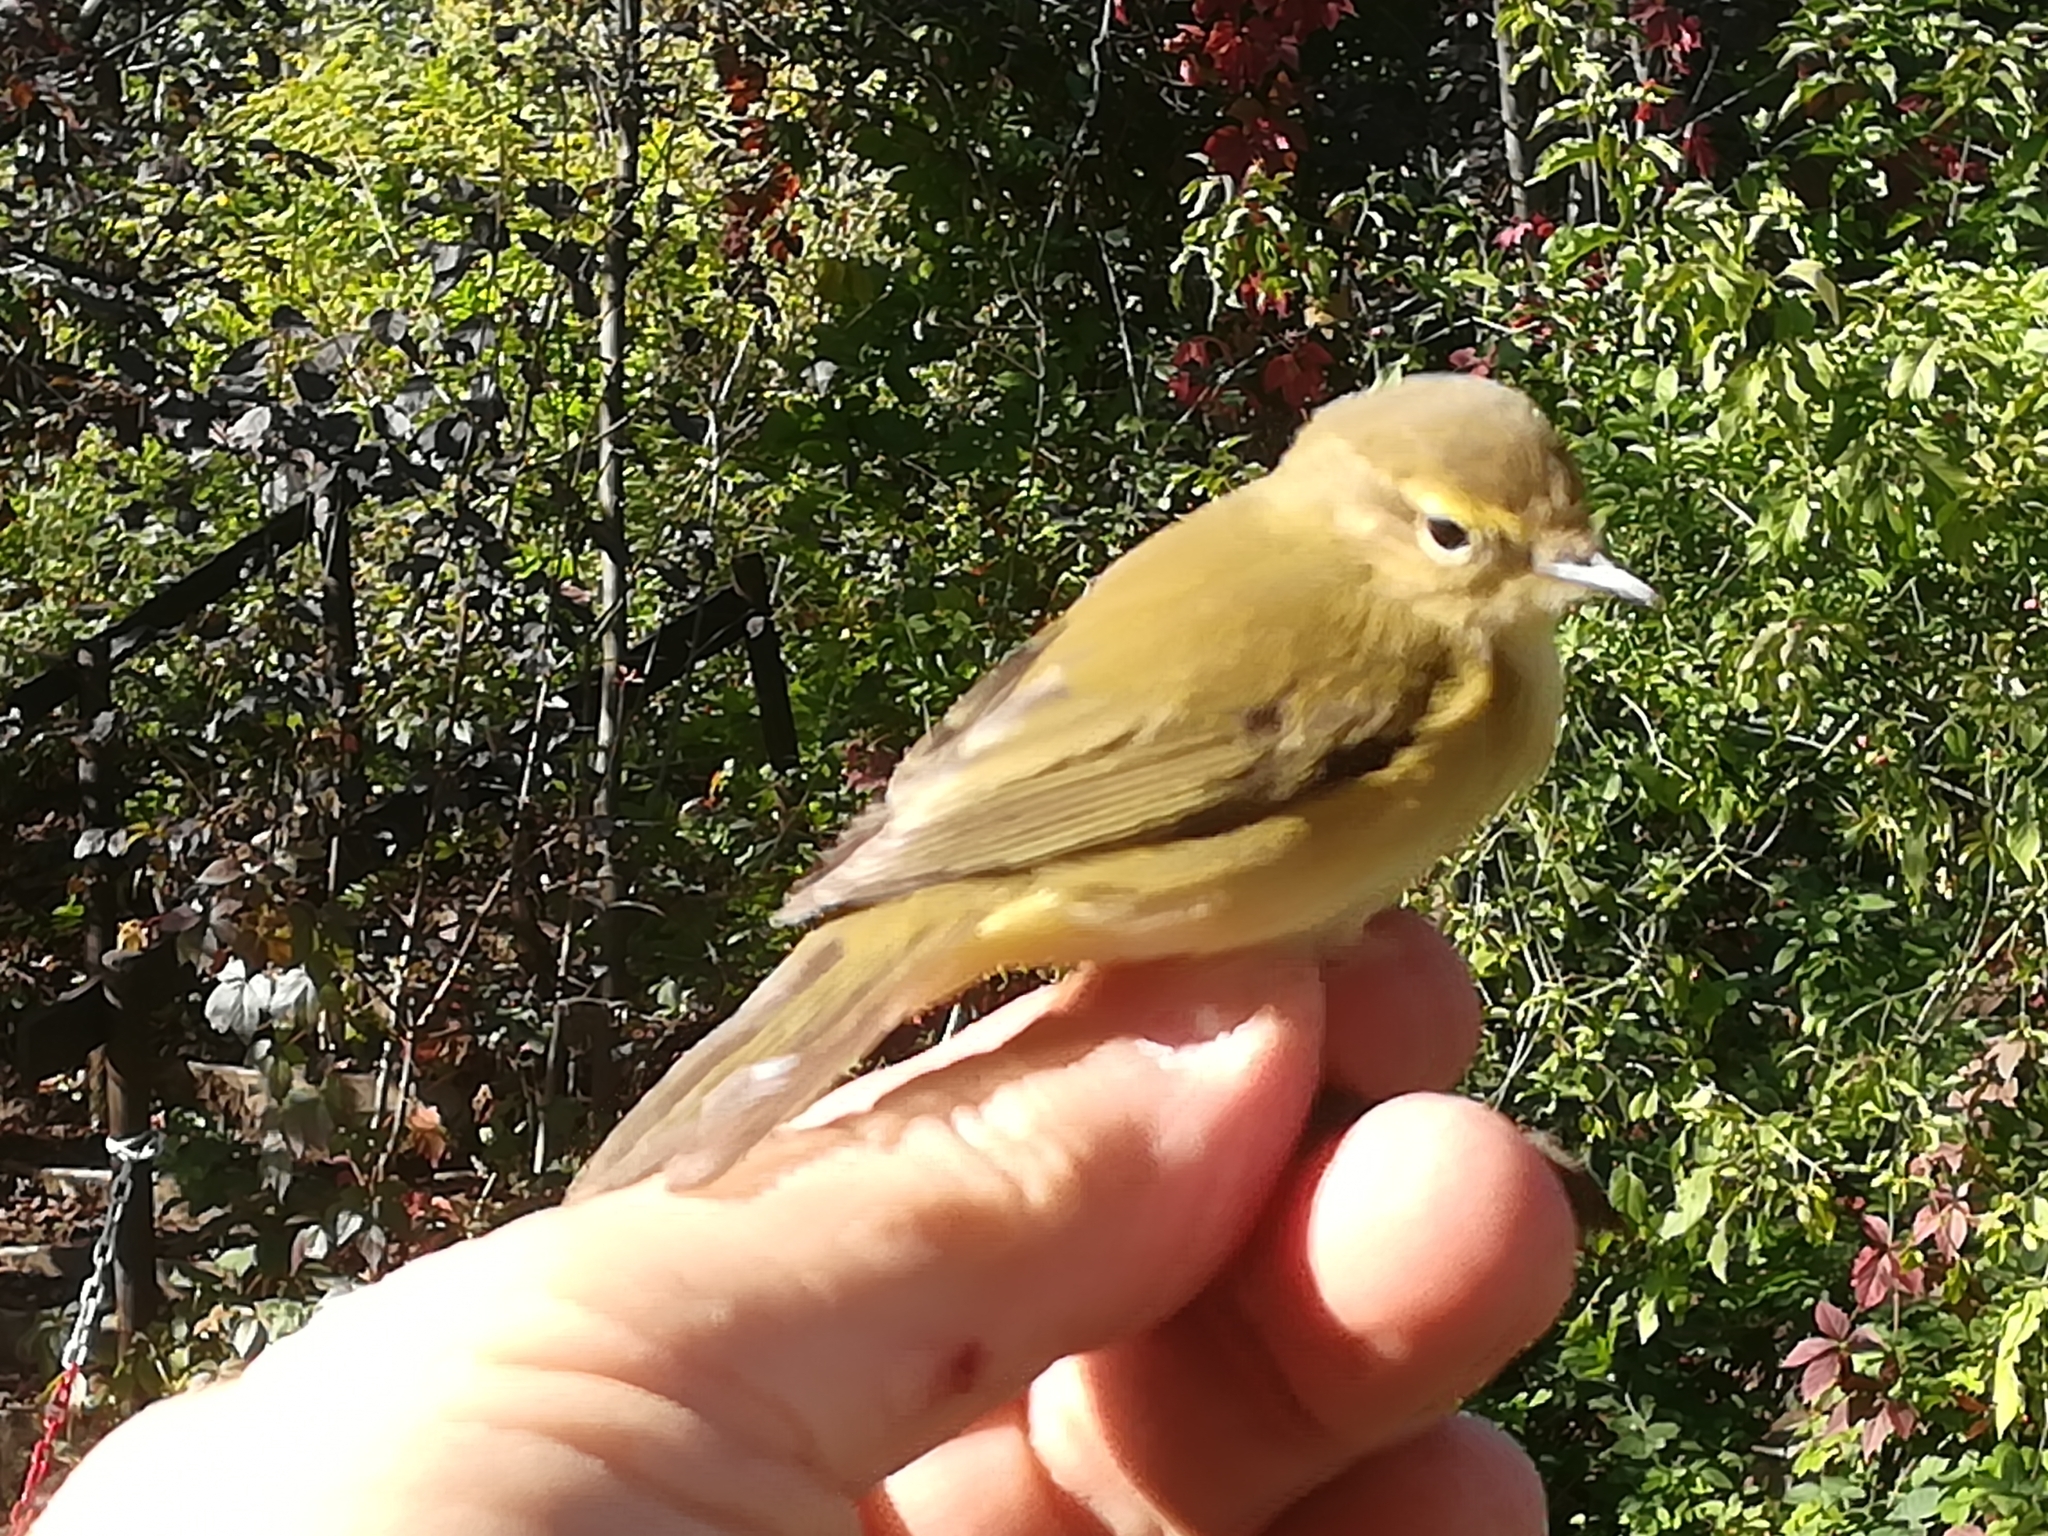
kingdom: Animalia
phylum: Chordata
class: Aves
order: Passeriformes
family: Phylloscopidae
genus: Phylloscopus
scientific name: Phylloscopus collybita
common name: Common chiffchaff
